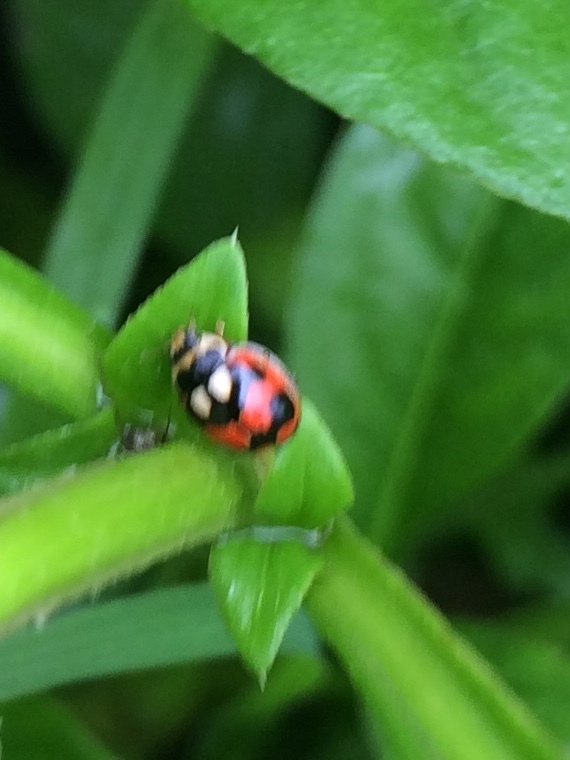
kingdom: Animalia
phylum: Arthropoda
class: Insecta
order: Coleoptera
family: Coccinellidae
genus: Propylea
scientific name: Propylea
